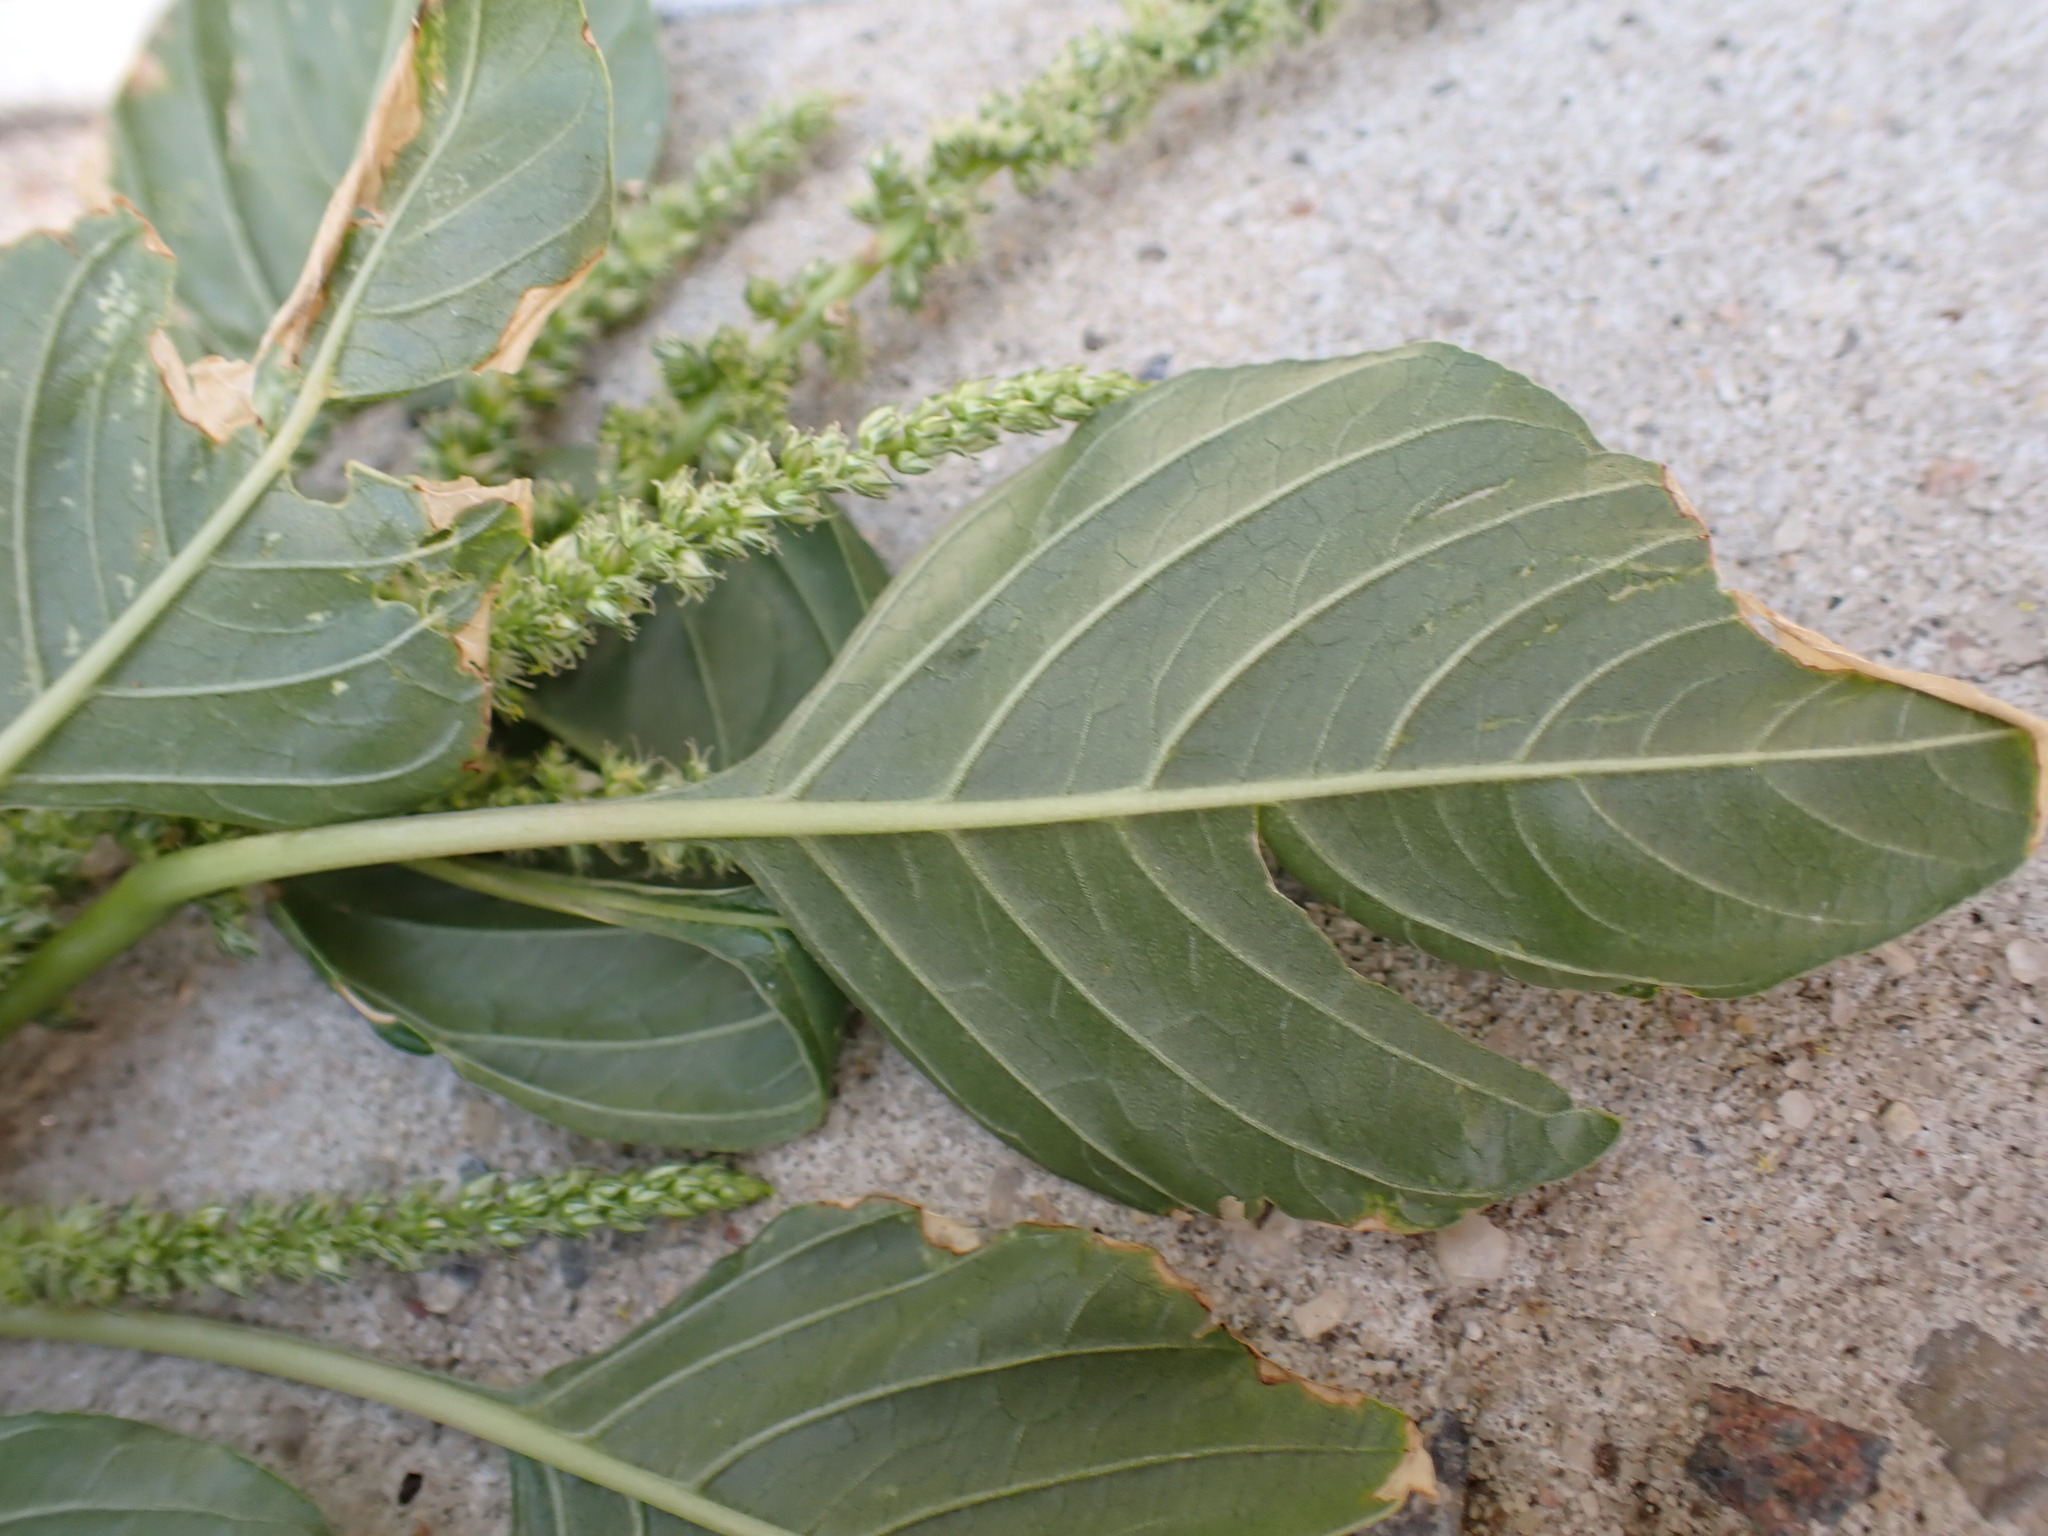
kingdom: Plantae
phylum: Tracheophyta
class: Magnoliopsida
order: Caryophyllales
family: Amaranthaceae
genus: Amaranthus
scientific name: Amaranthus hybridus
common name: Green amaranth
